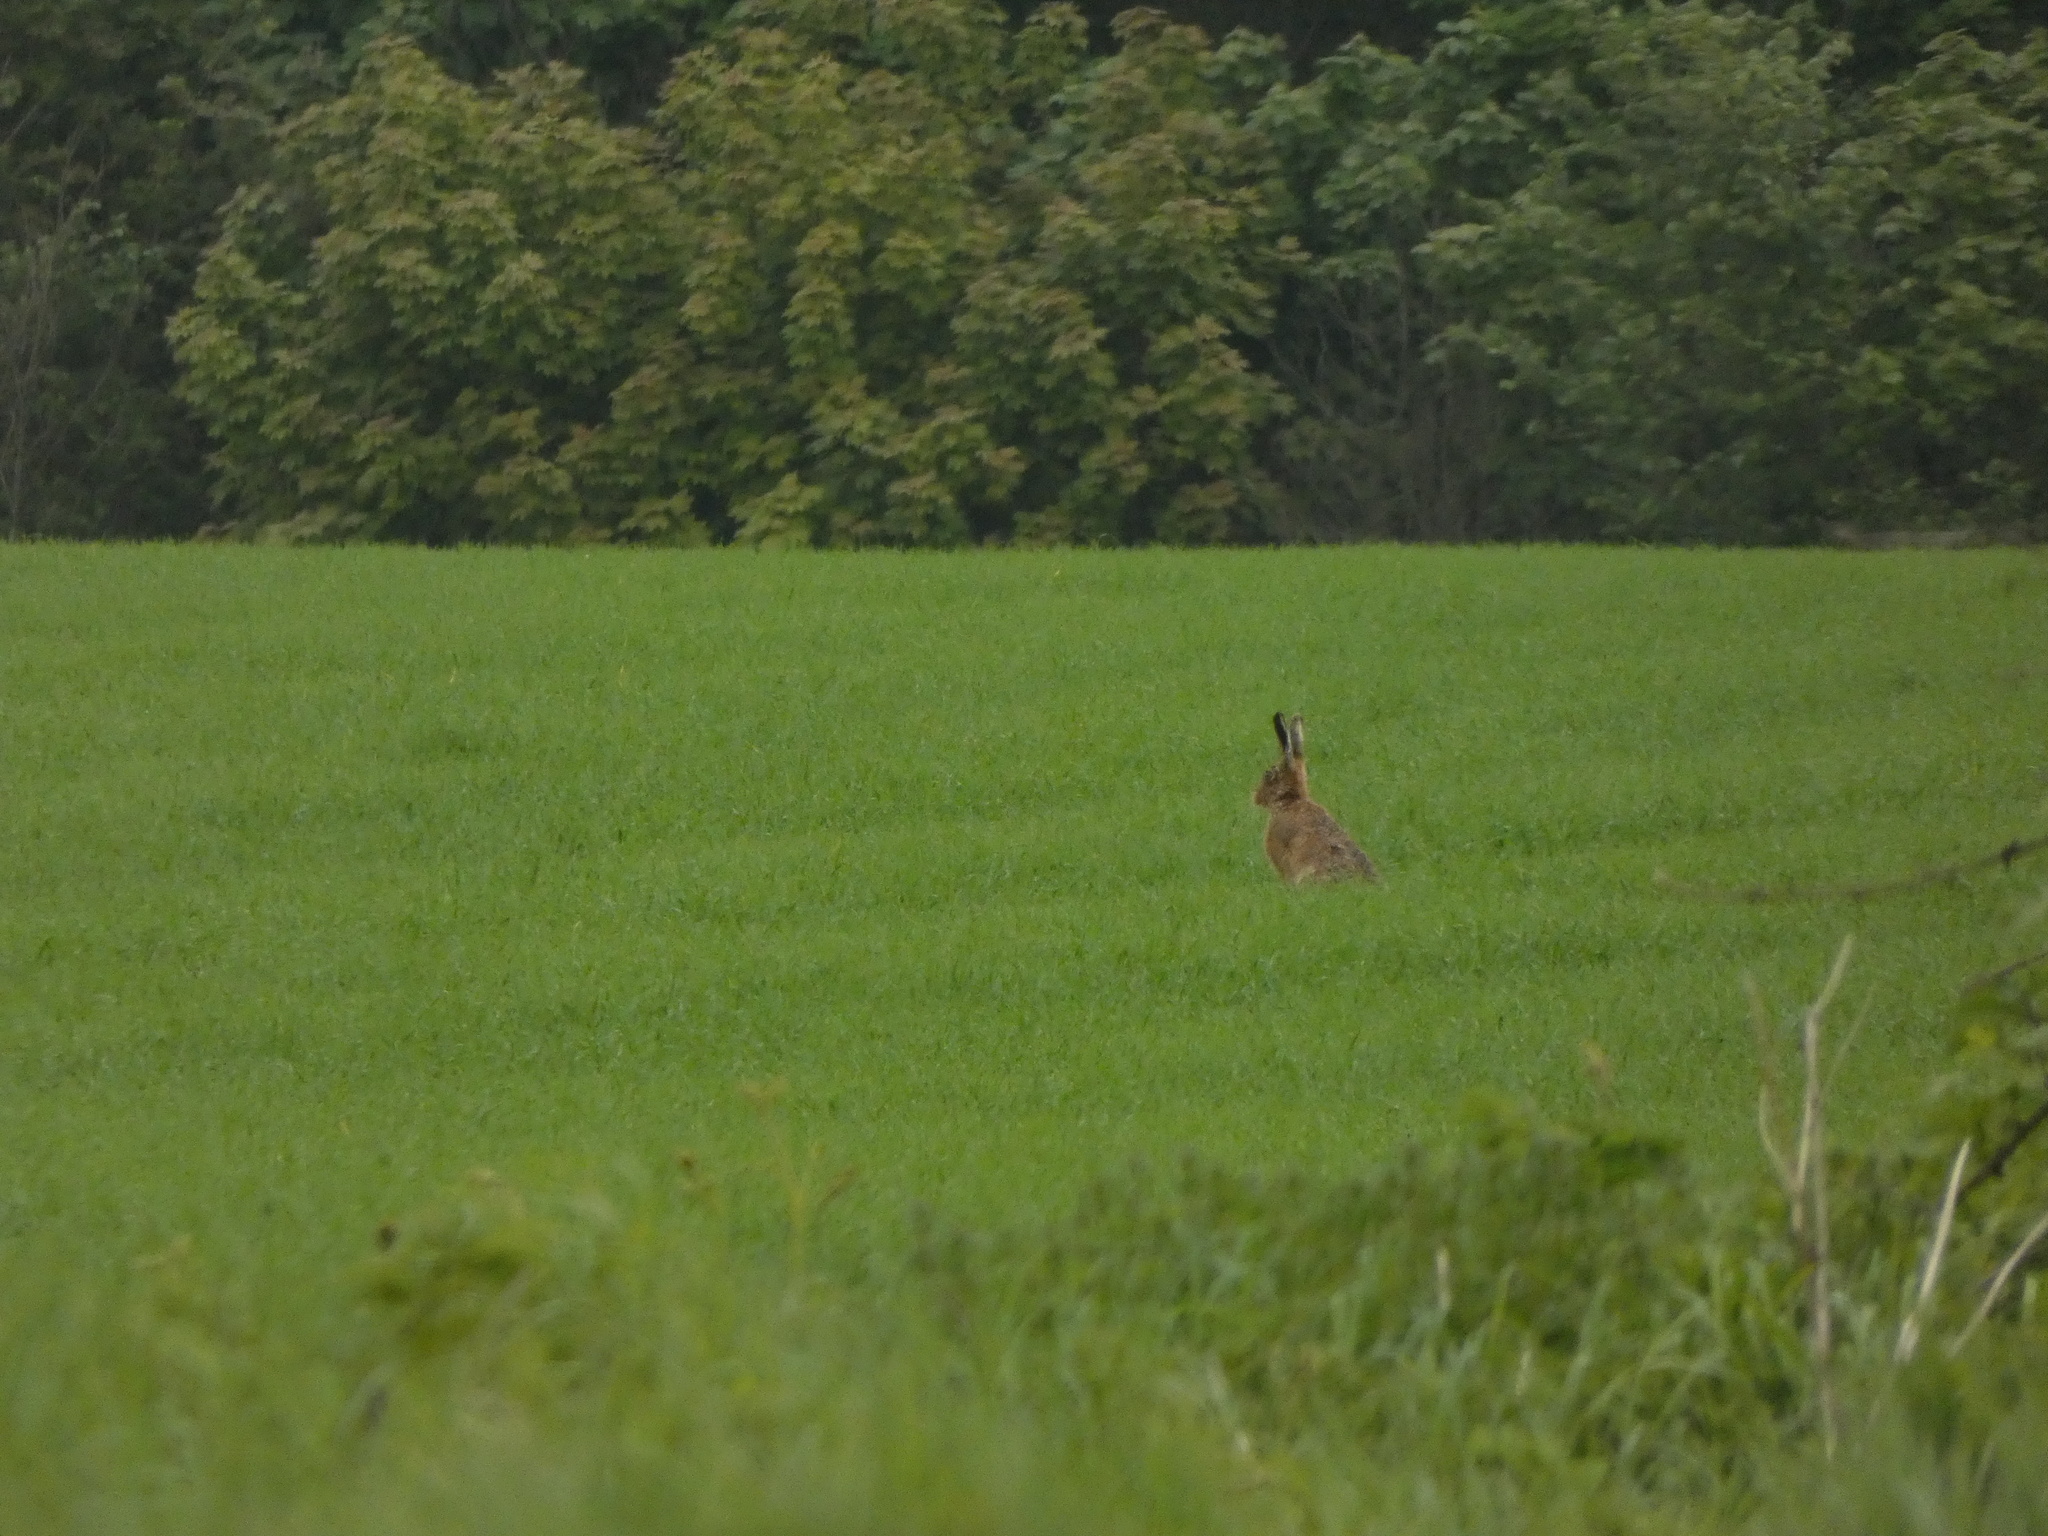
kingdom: Animalia
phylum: Chordata
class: Mammalia
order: Lagomorpha
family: Leporidae
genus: Lepus
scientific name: Lepus europaeus
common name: European hare
